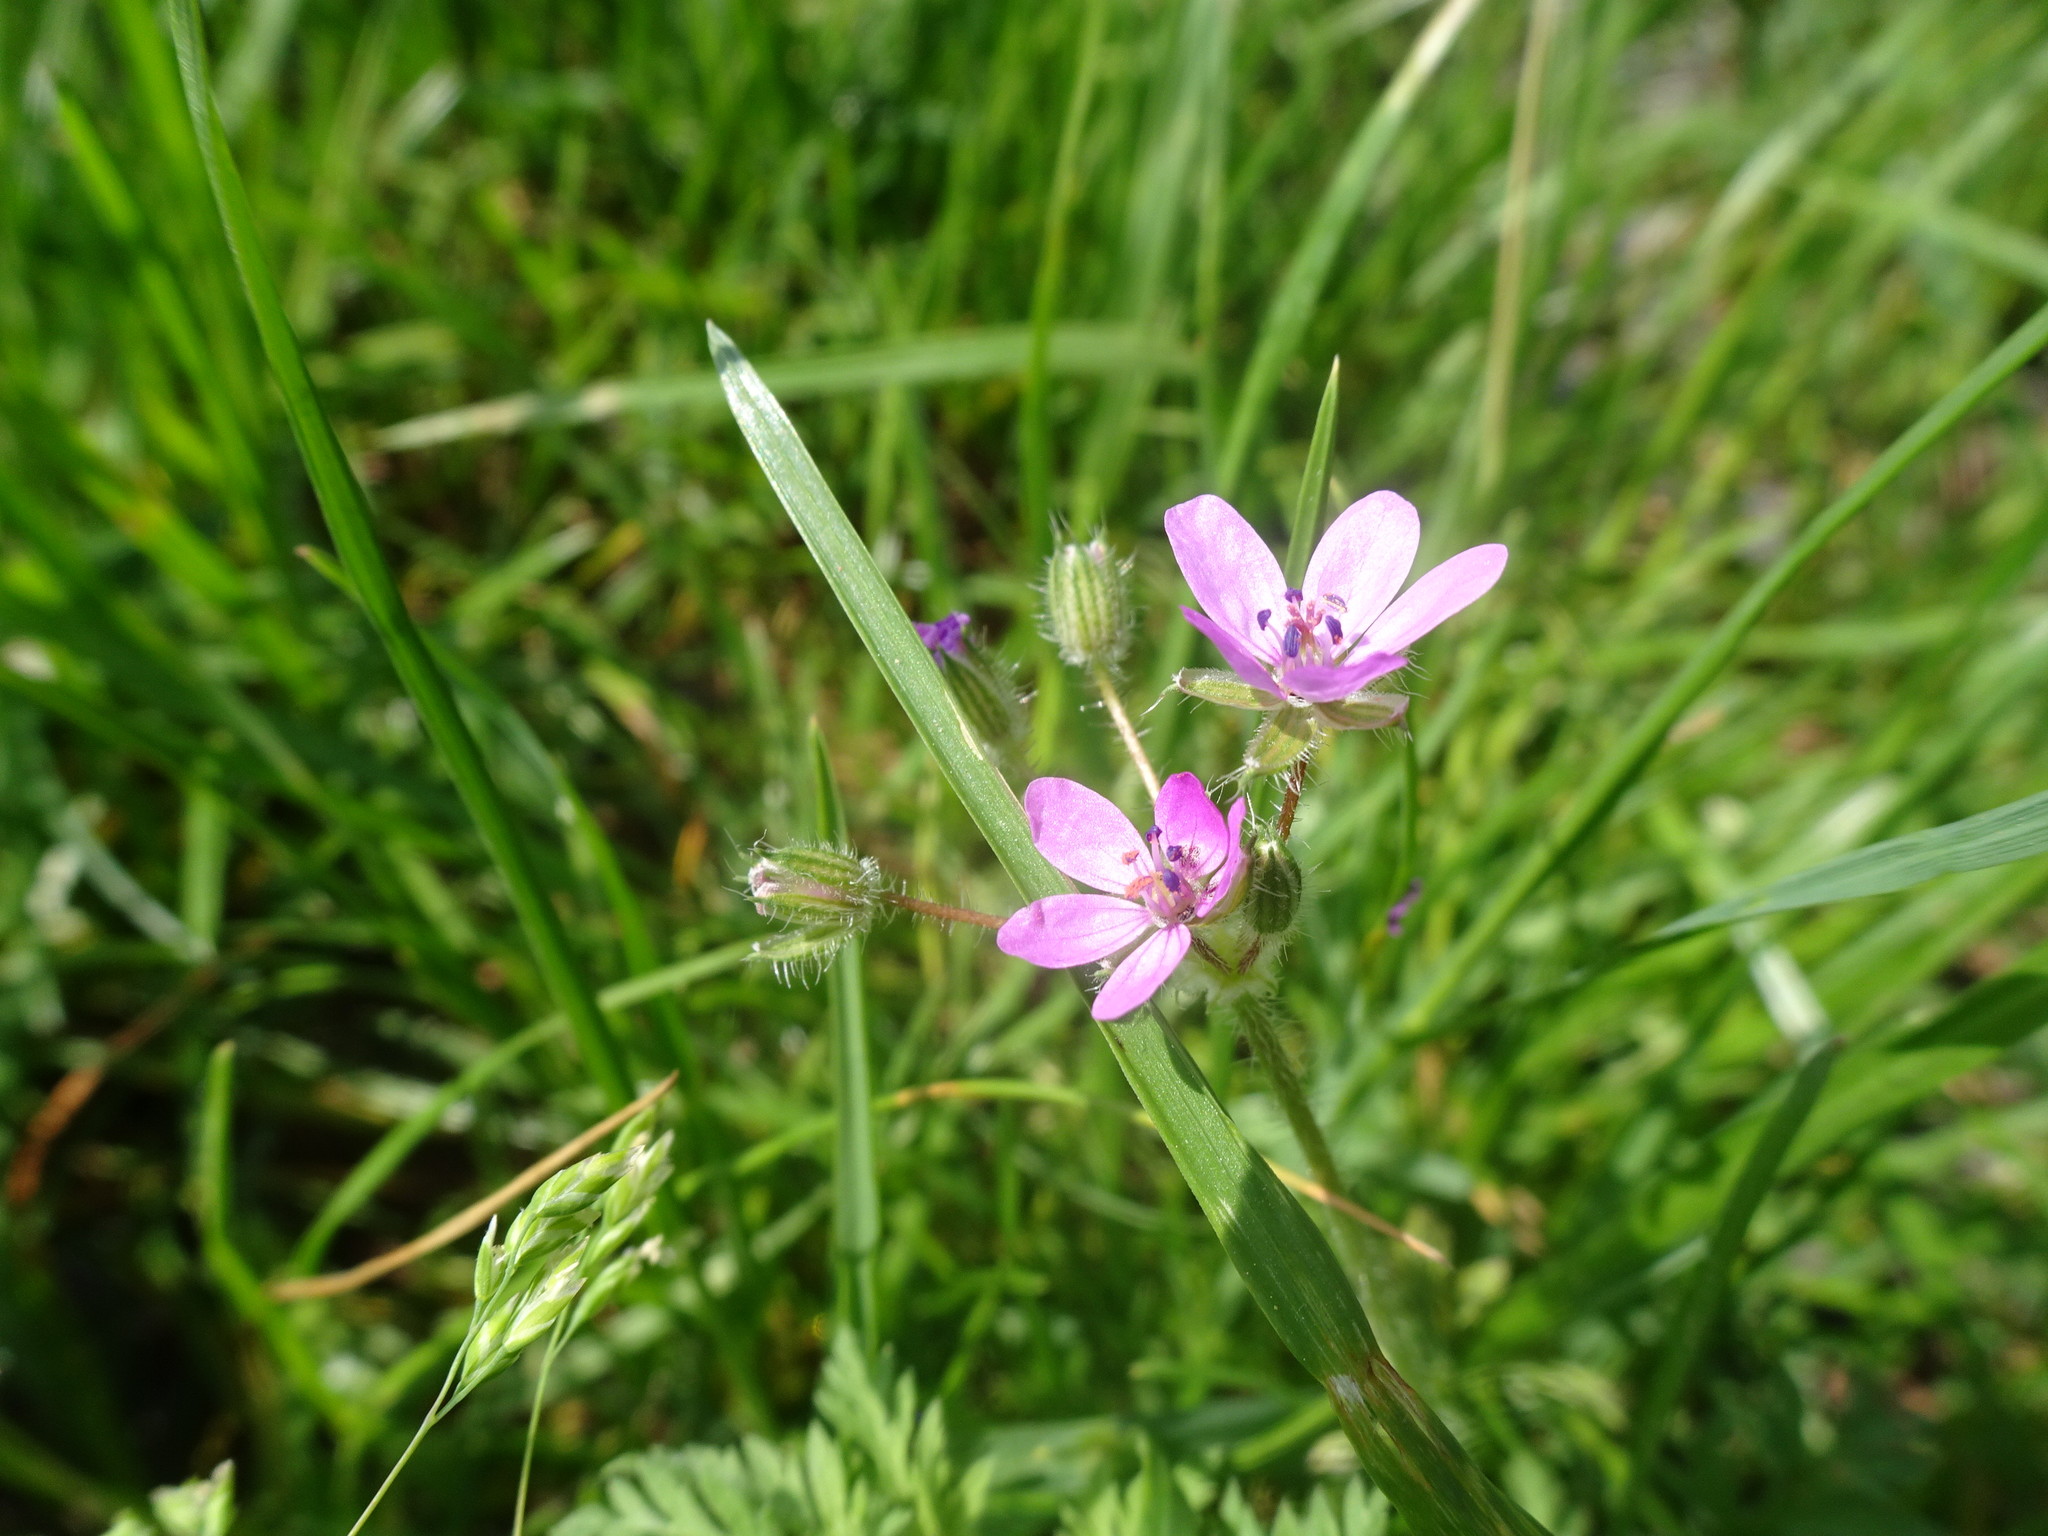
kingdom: Plantae
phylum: Tracheophyta
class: Magnoliopsida
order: Geraniales
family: Geraniaceae
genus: Erodium
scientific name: Erodium cicutarium
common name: Common stork's-bill
